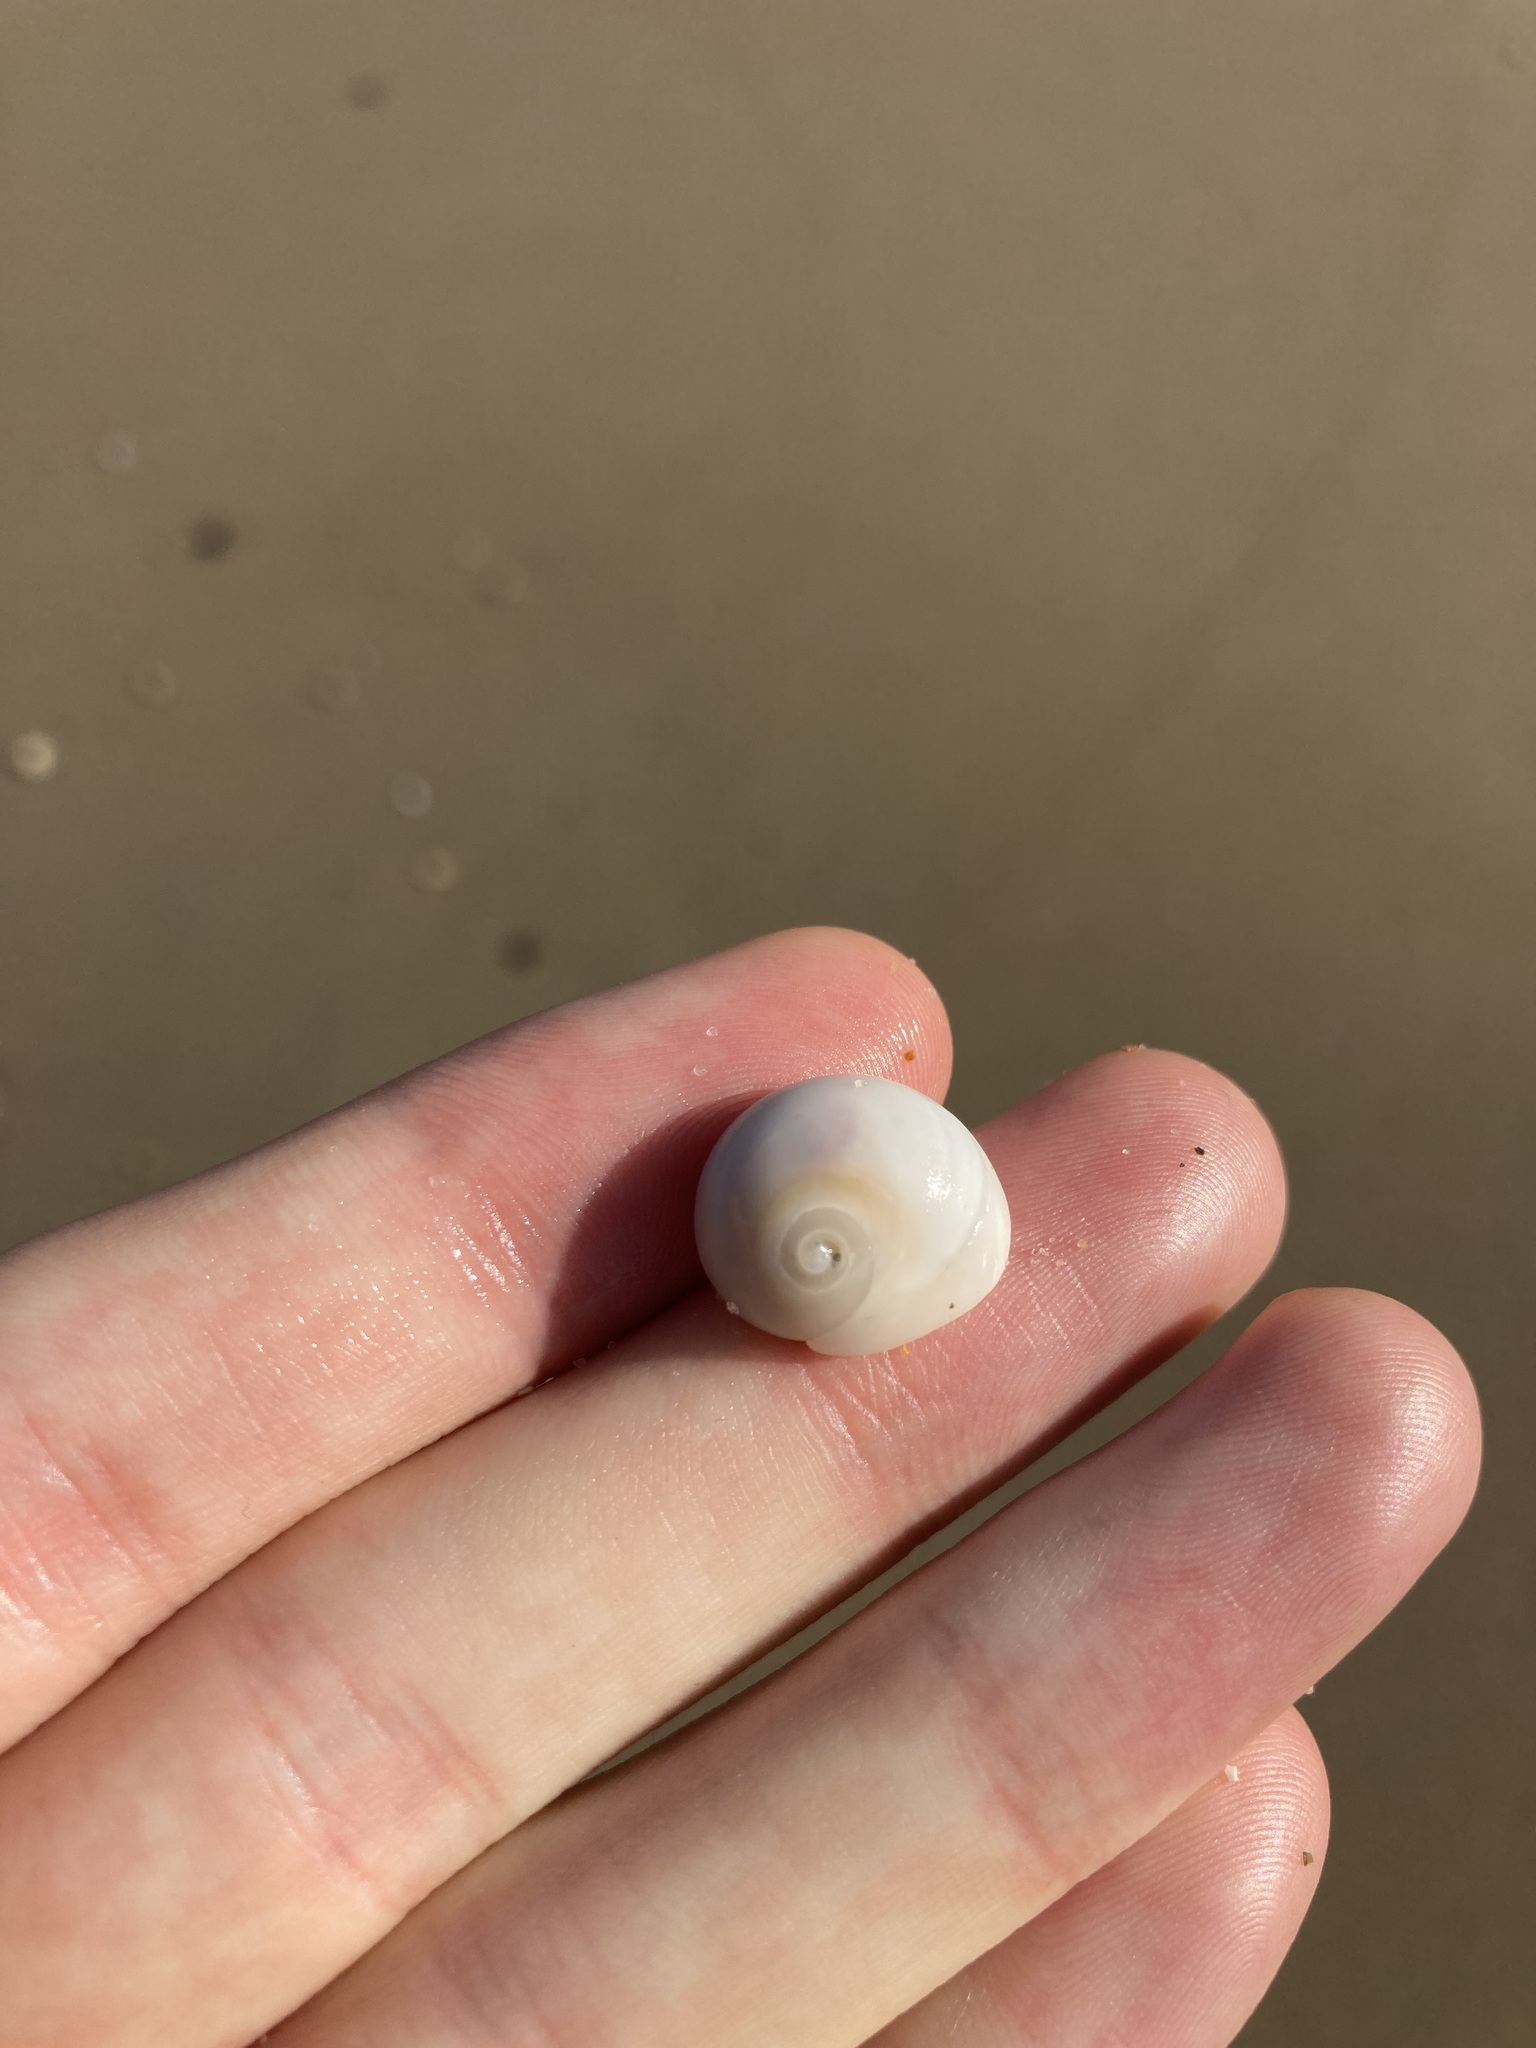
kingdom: Animalia
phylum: Mollusca
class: Gastropoda
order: Littorinimorpha
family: Naticidae
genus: Conuber
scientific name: Conuber incei
